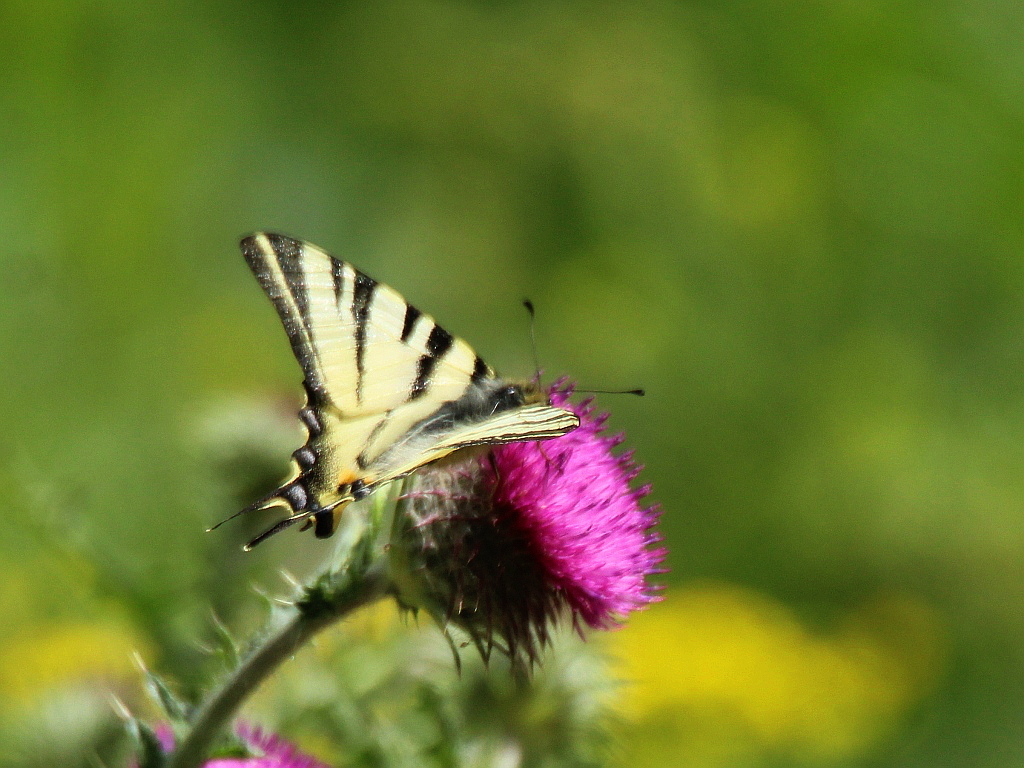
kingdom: Animalia
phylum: Arthropoda
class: Insecta
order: Lepidoptera
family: Papilionidae
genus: Iphiclides
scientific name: Iphiclides podalirius
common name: Scarce swallowtail
